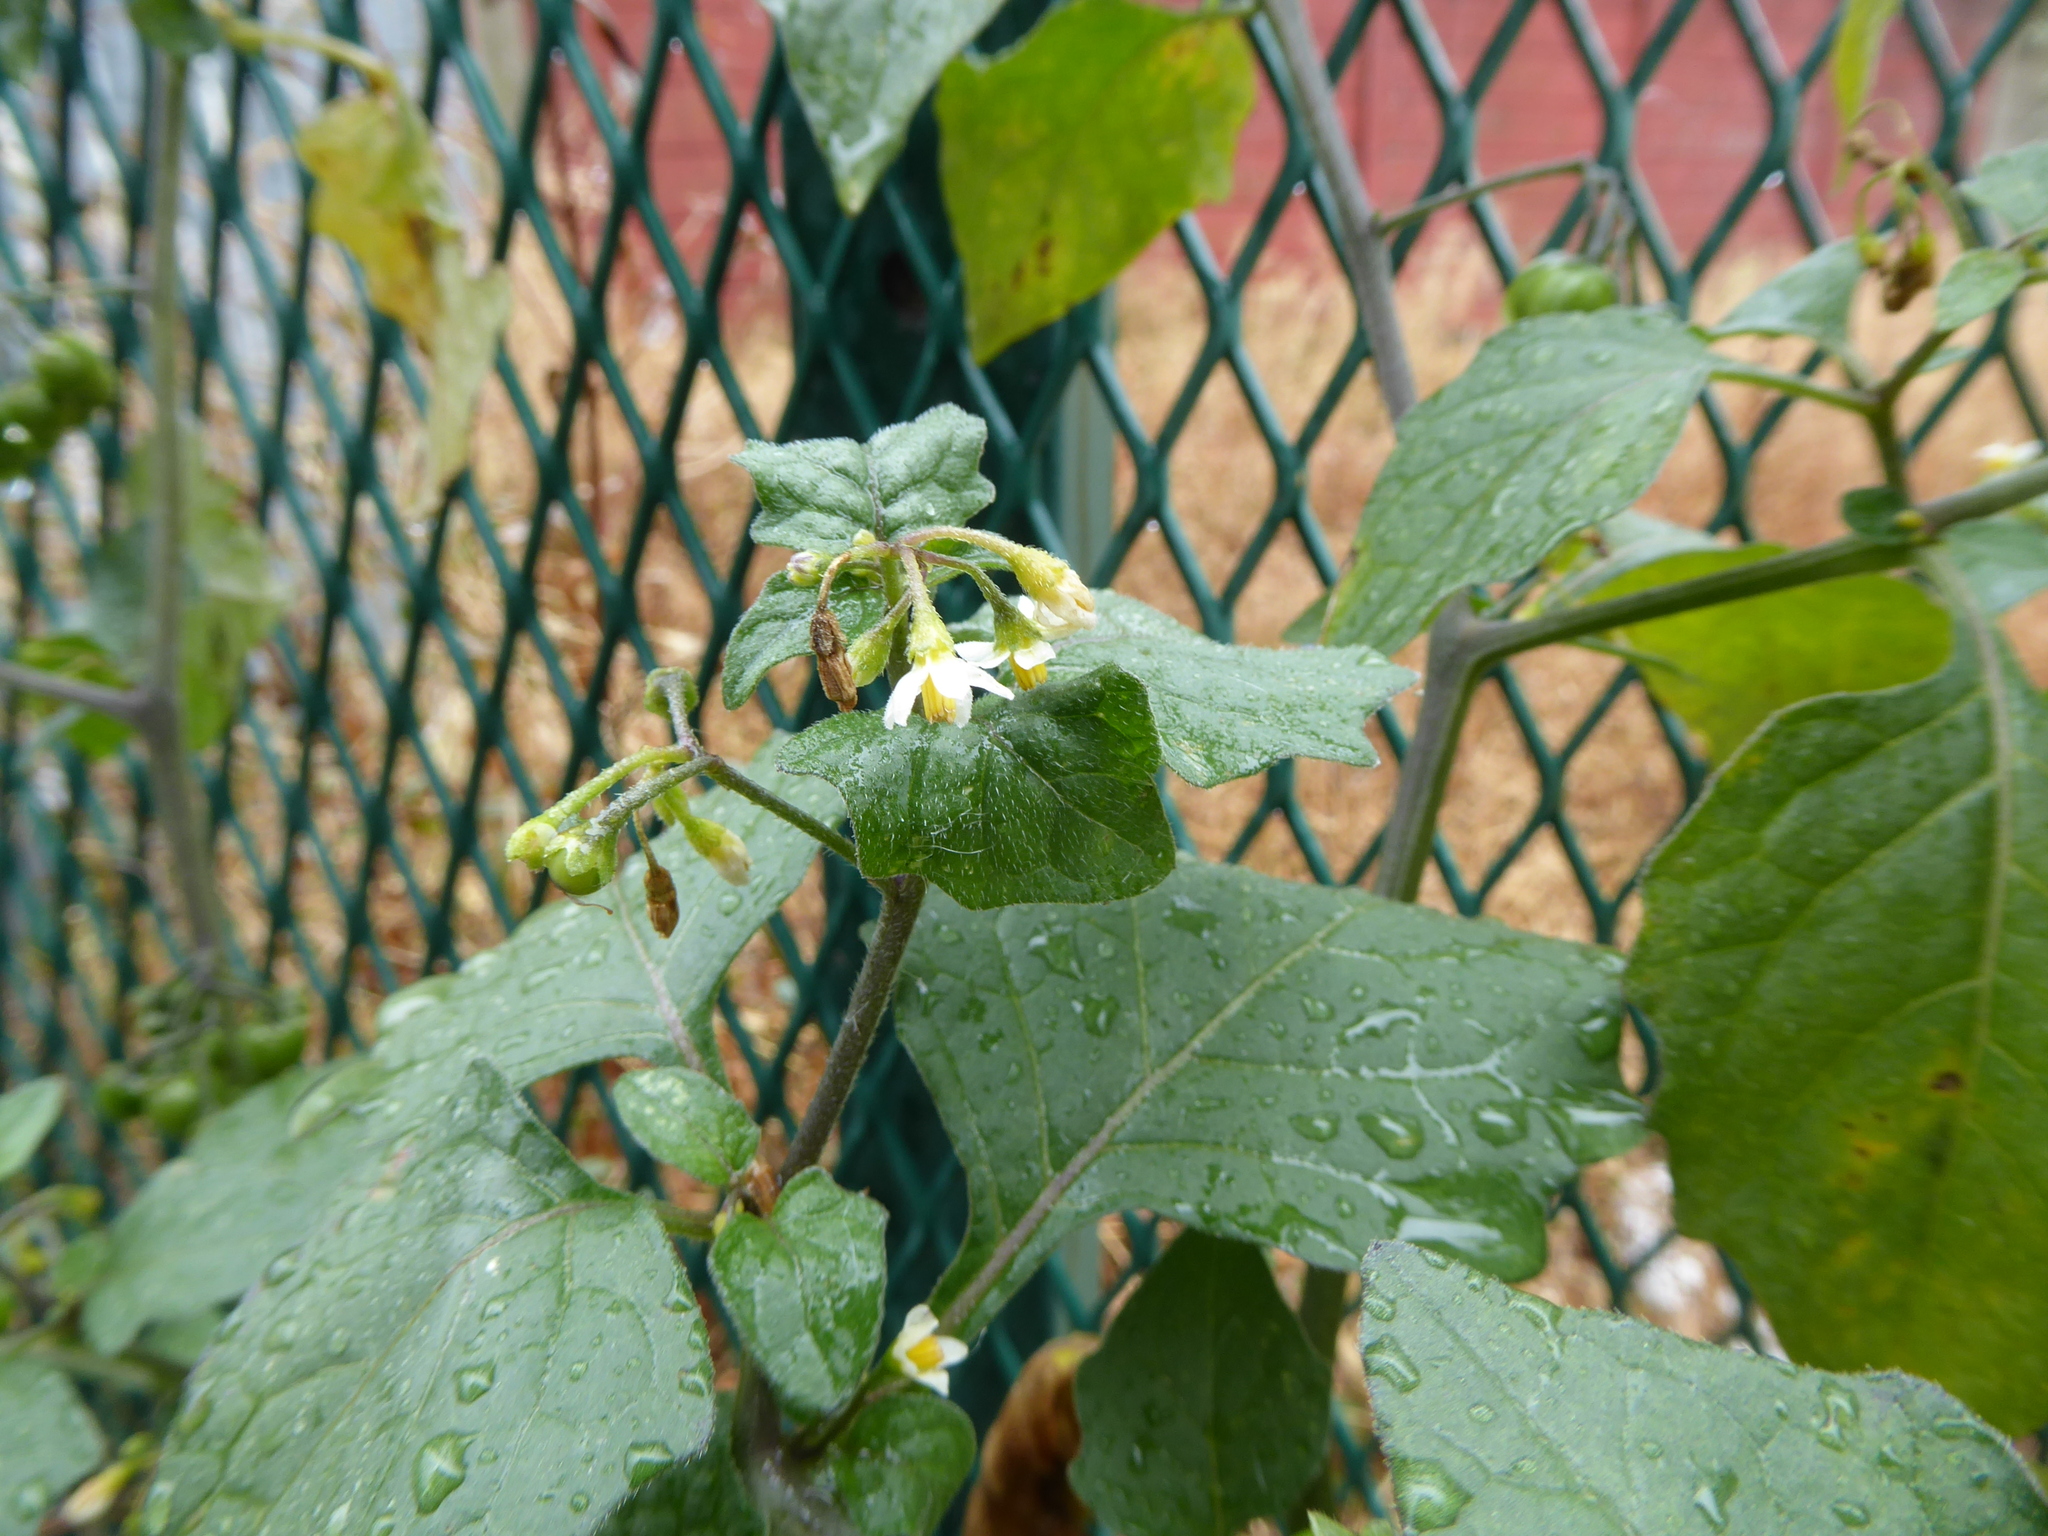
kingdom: Plantae
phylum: Tracheophyta
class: Magnoliopsida
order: Solanales
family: Solanaceae
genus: Solanum
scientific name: Solanum nigrum
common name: Black nightshade
